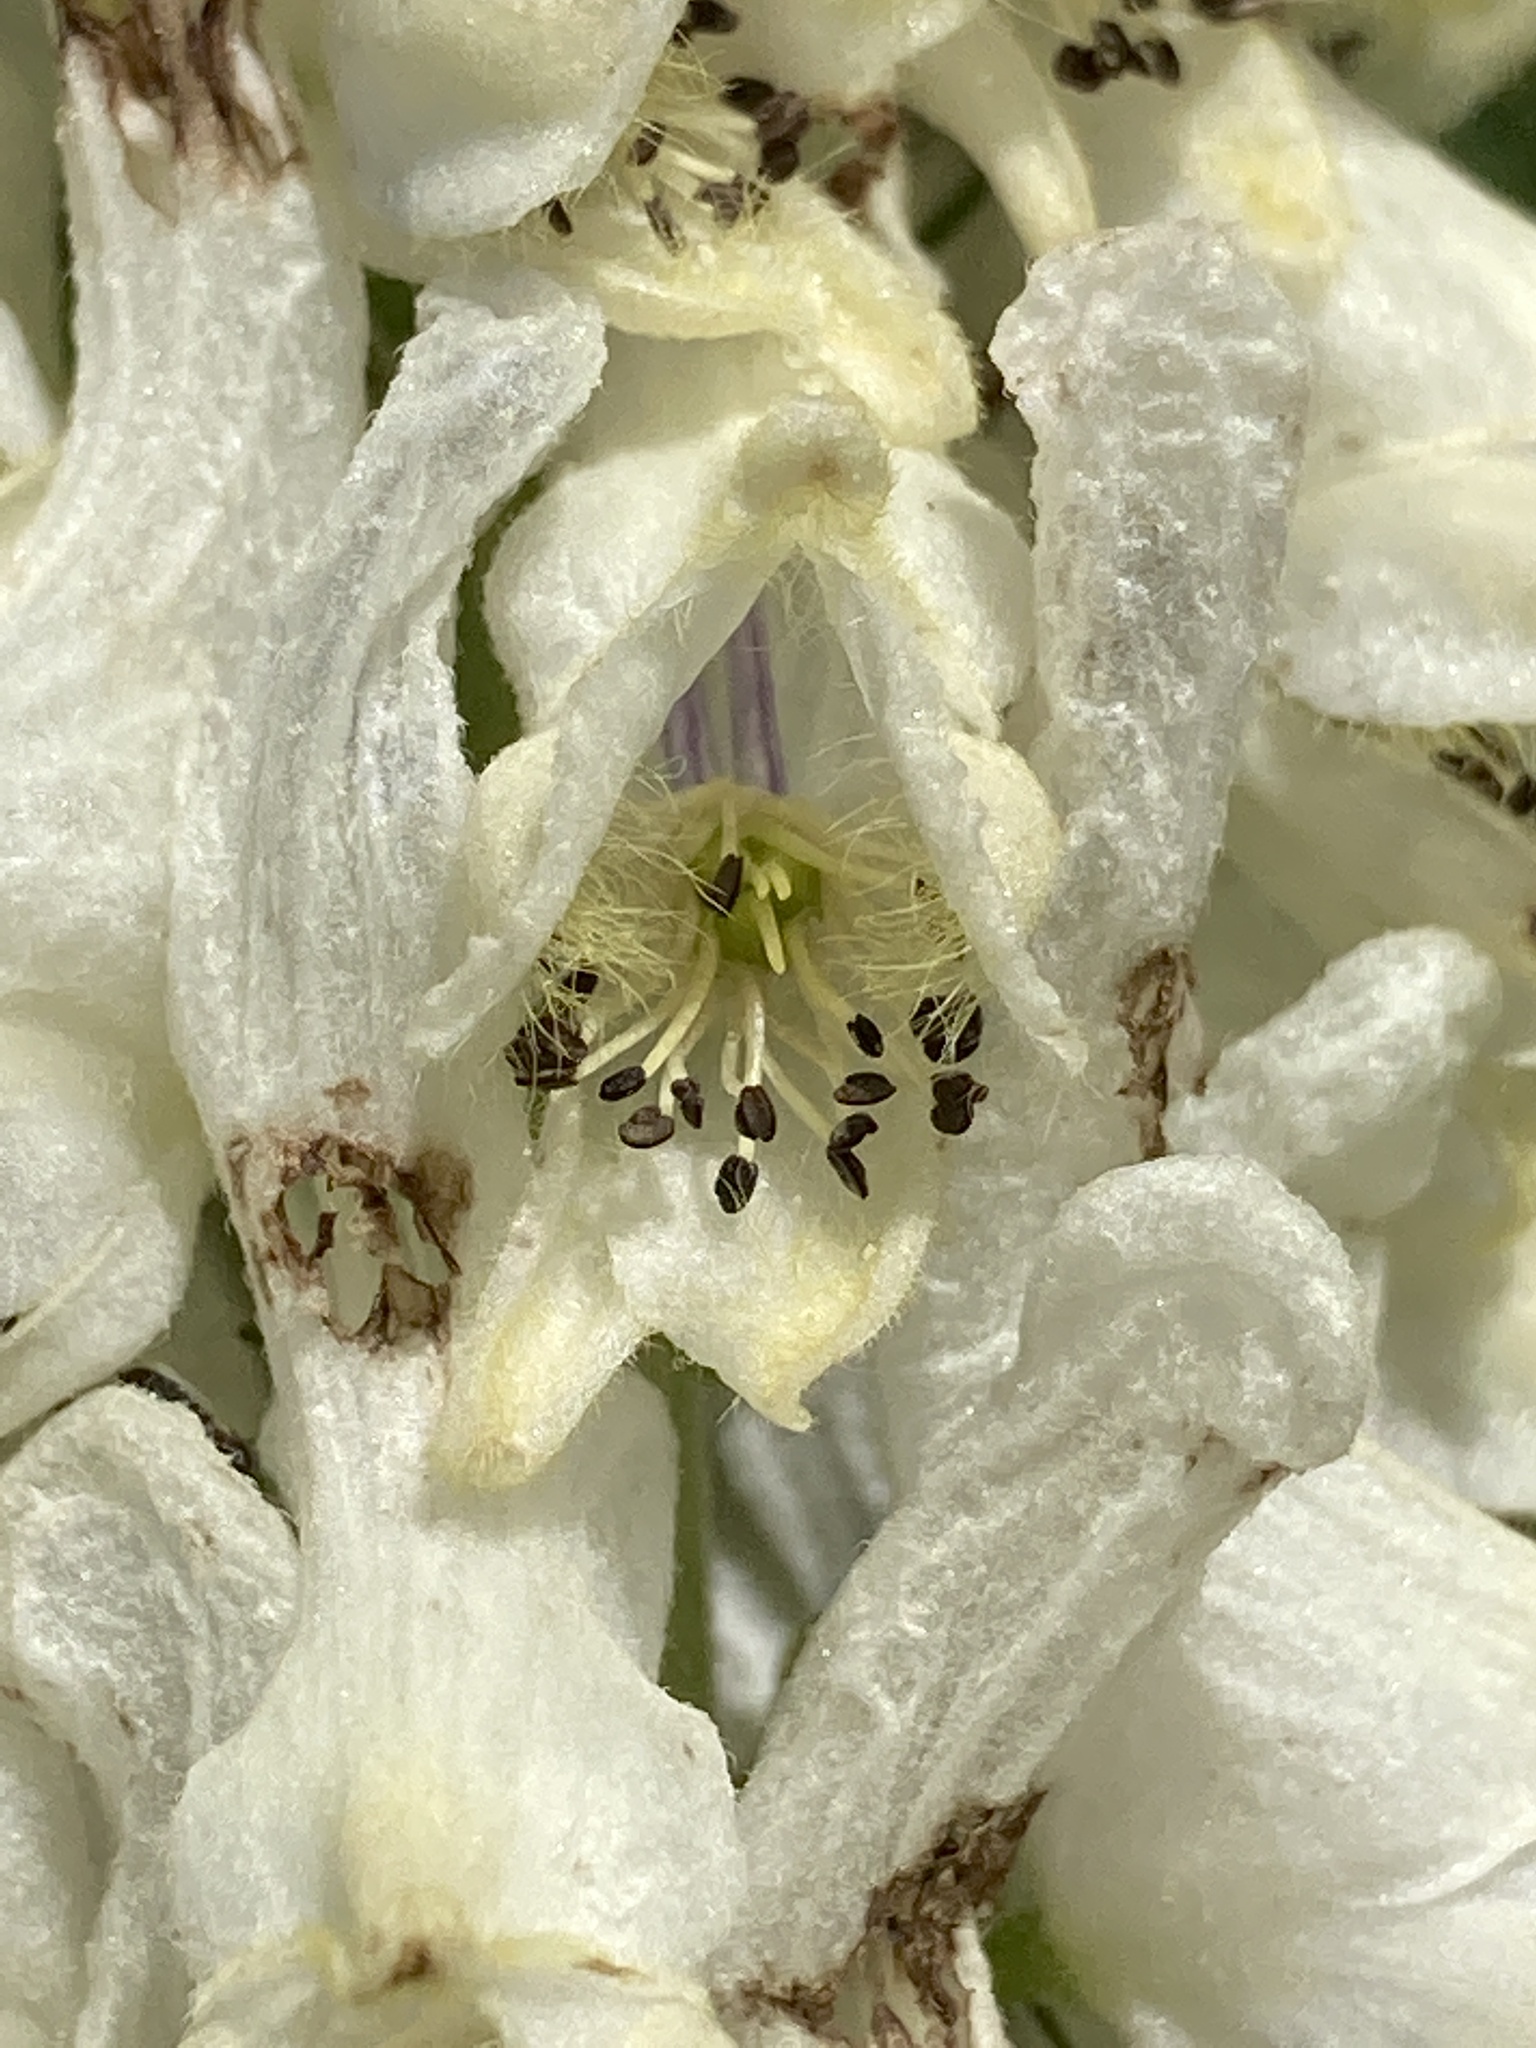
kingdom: Plantae
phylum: Tracheophyta
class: Magnoliopsida
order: Ranunculales
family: Ranunculaceae
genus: Aconitum
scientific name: Aconitum orientale
